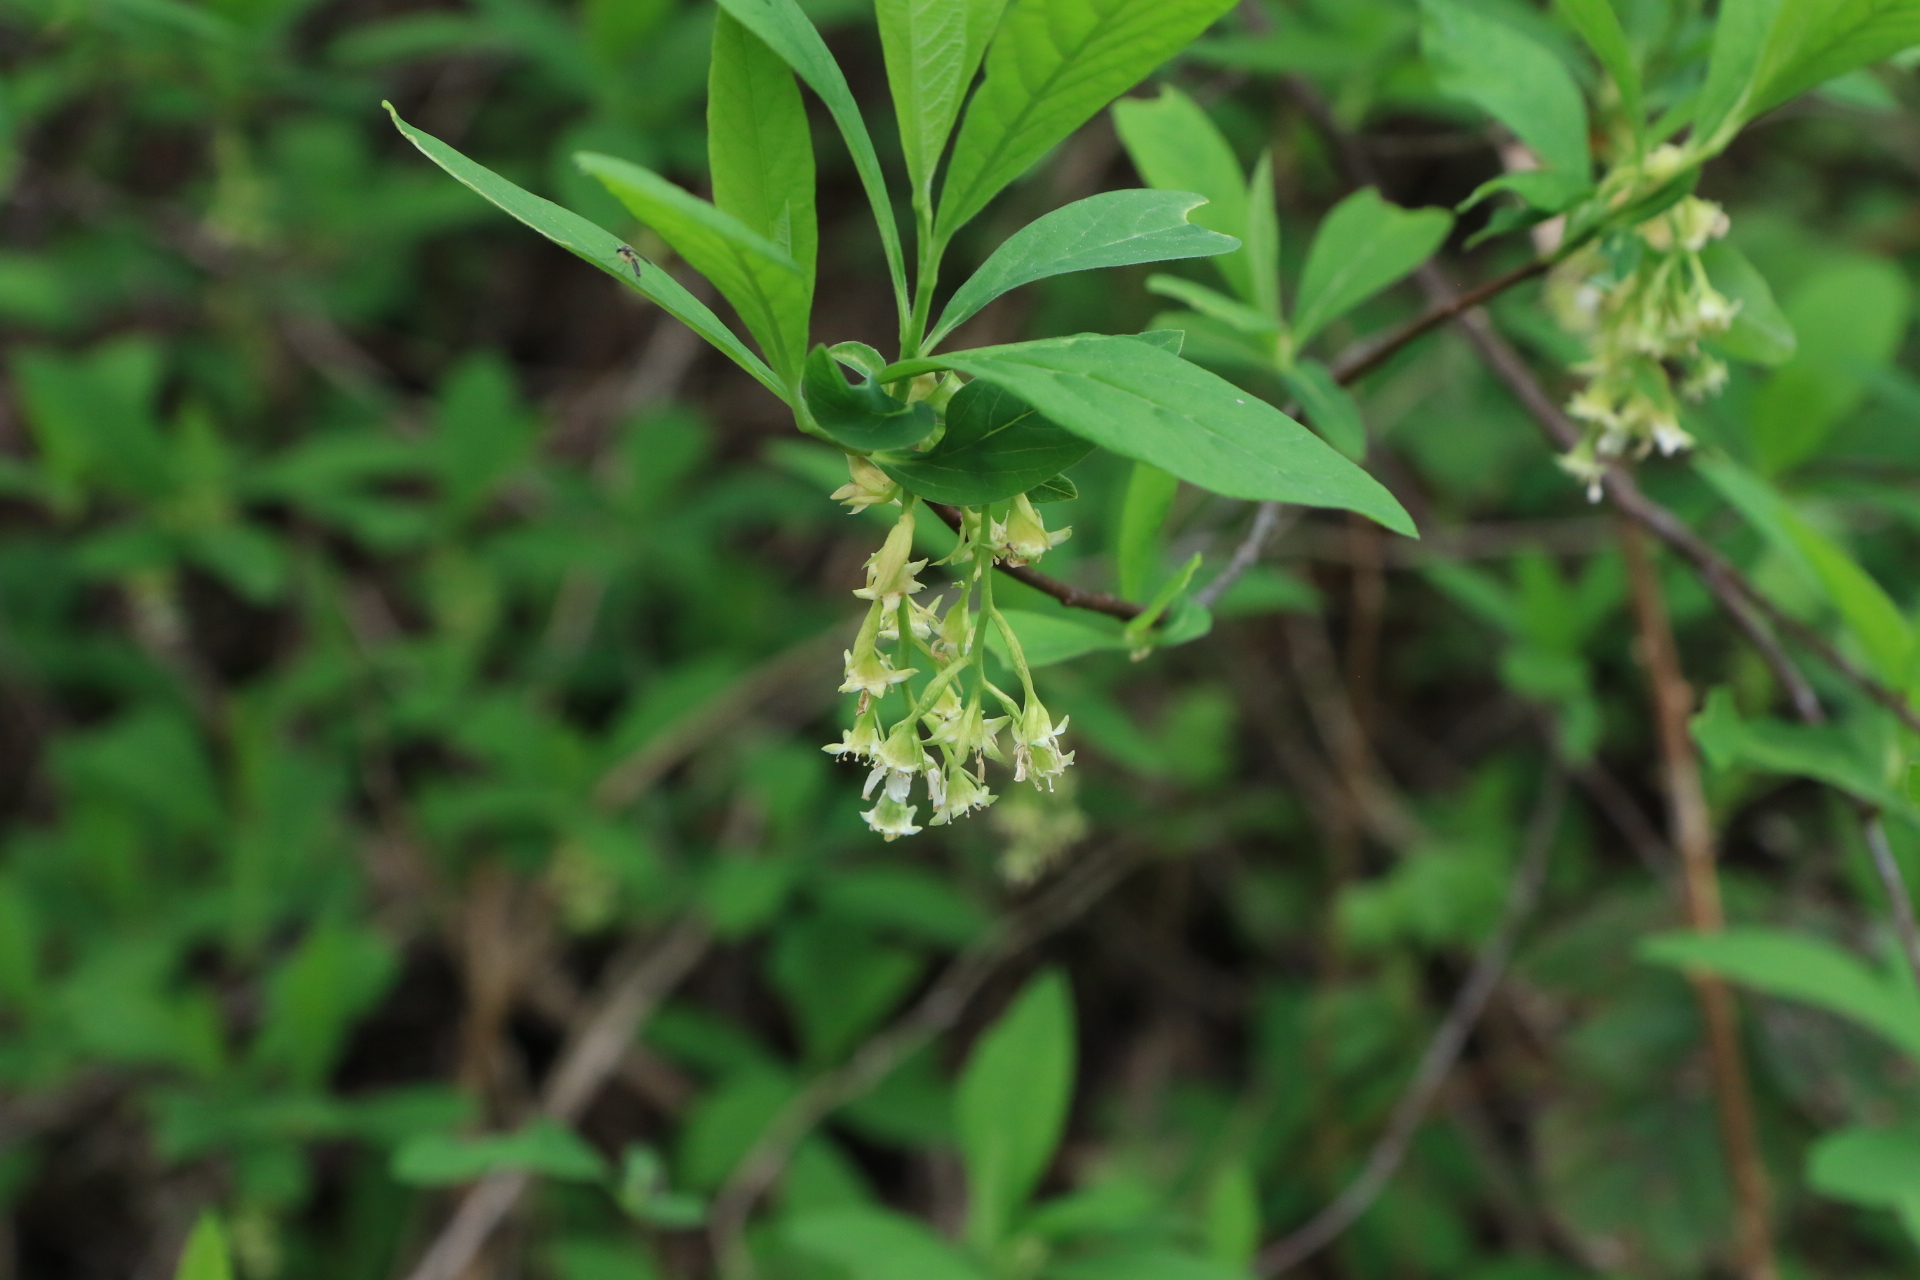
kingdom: Plantae
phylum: Tracheophyta
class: Magnoliopsida
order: Rosales
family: Rosaceae
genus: Oemleria
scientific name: Oemleria cerasiformis
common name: Osoberry
